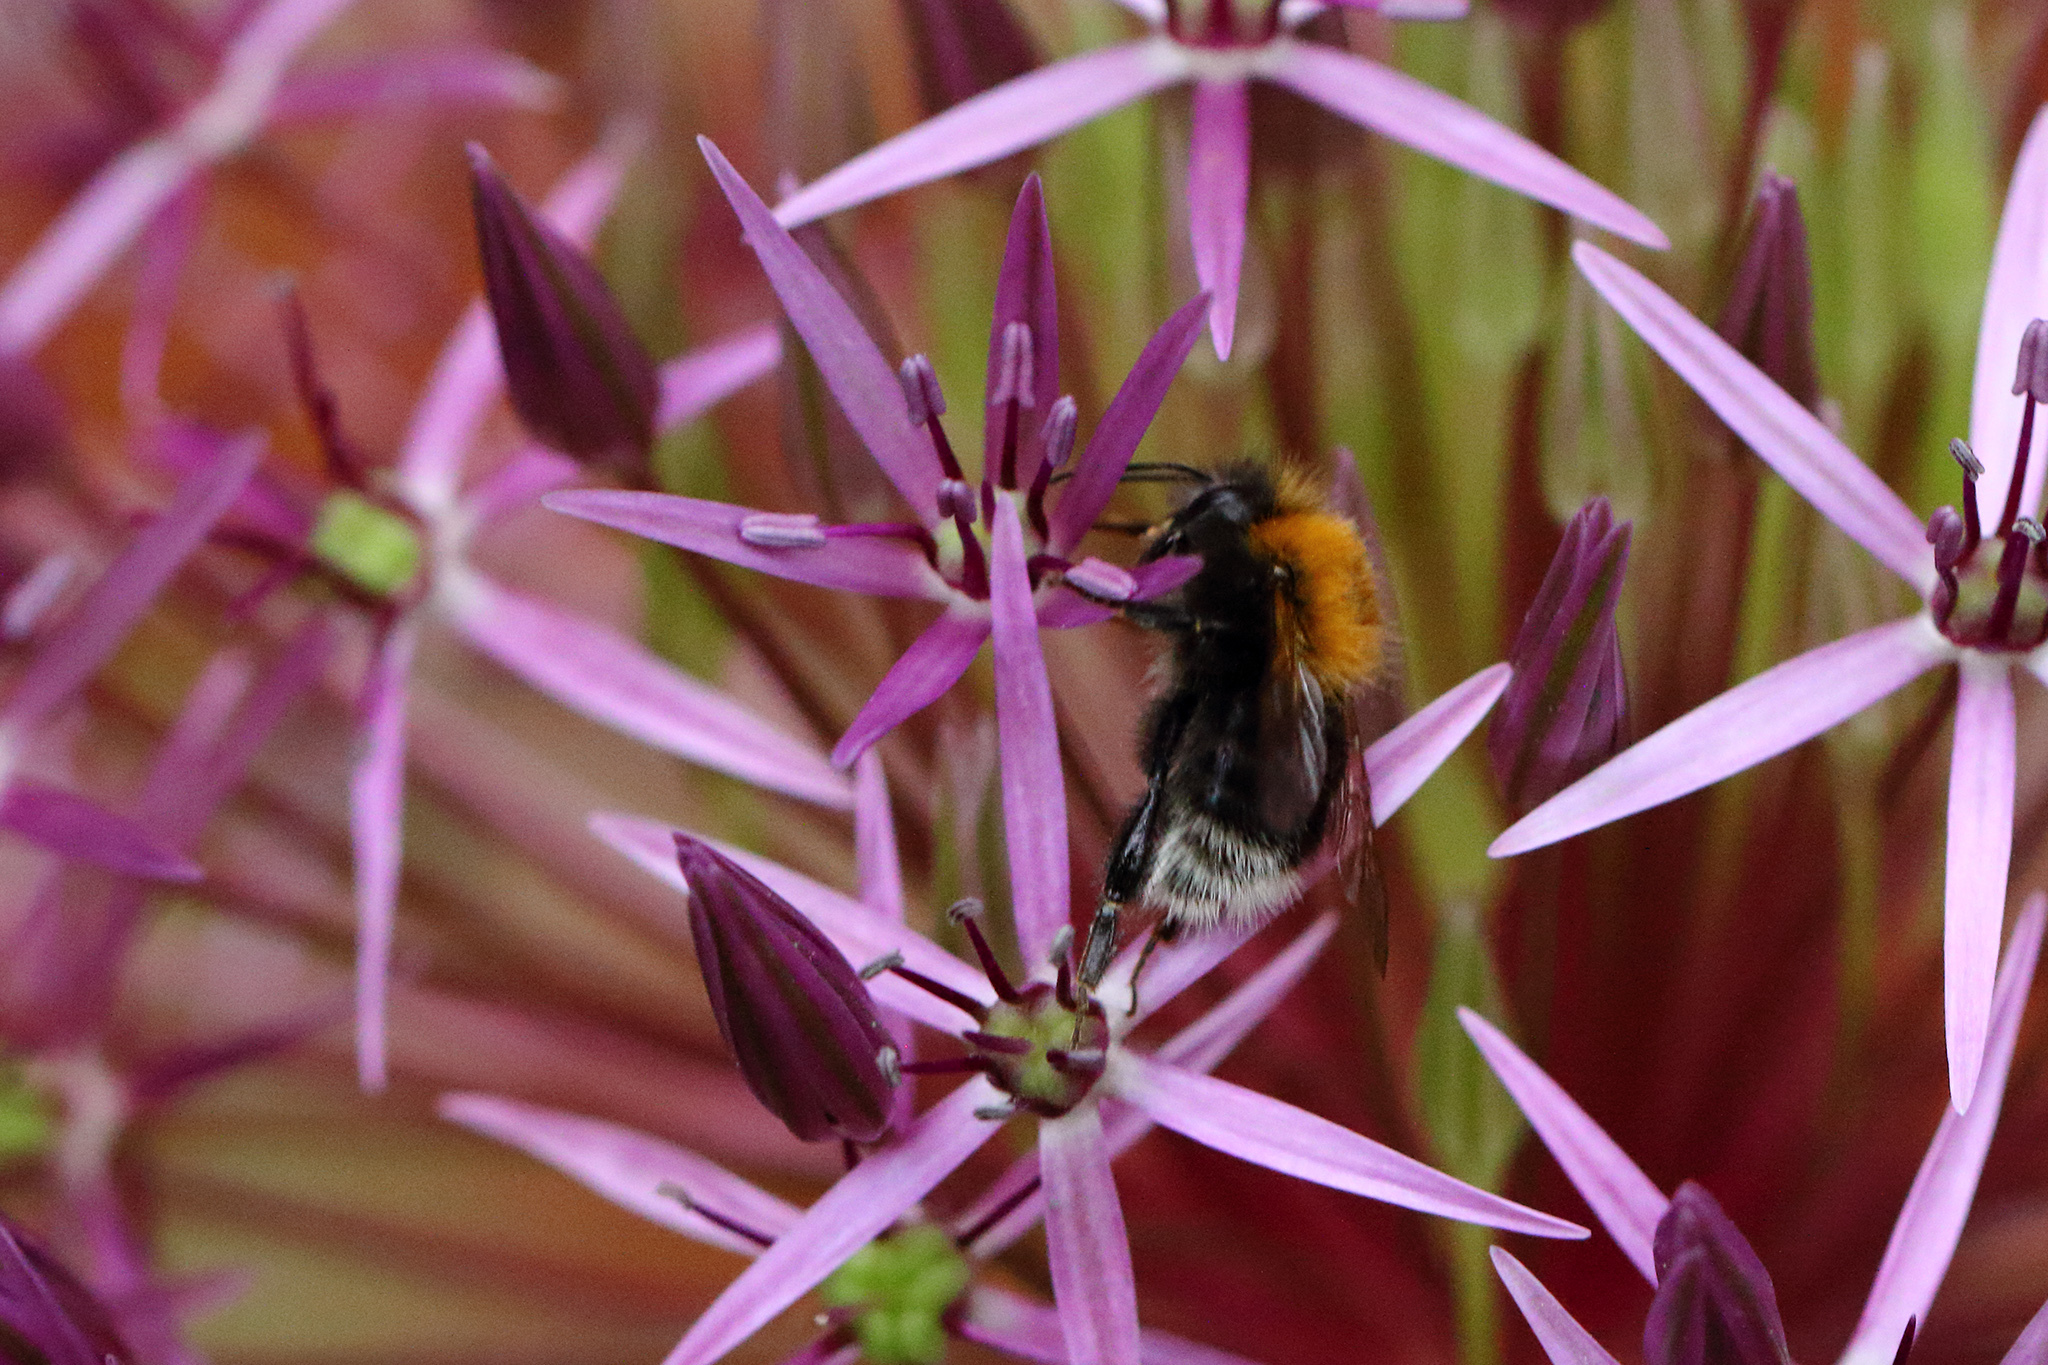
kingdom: Animalia
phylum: Arthropoda
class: Insecta
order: Hymenoptera
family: Apidae
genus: Bombus
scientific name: Bombus hypnorum
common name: New garden bumblebee
